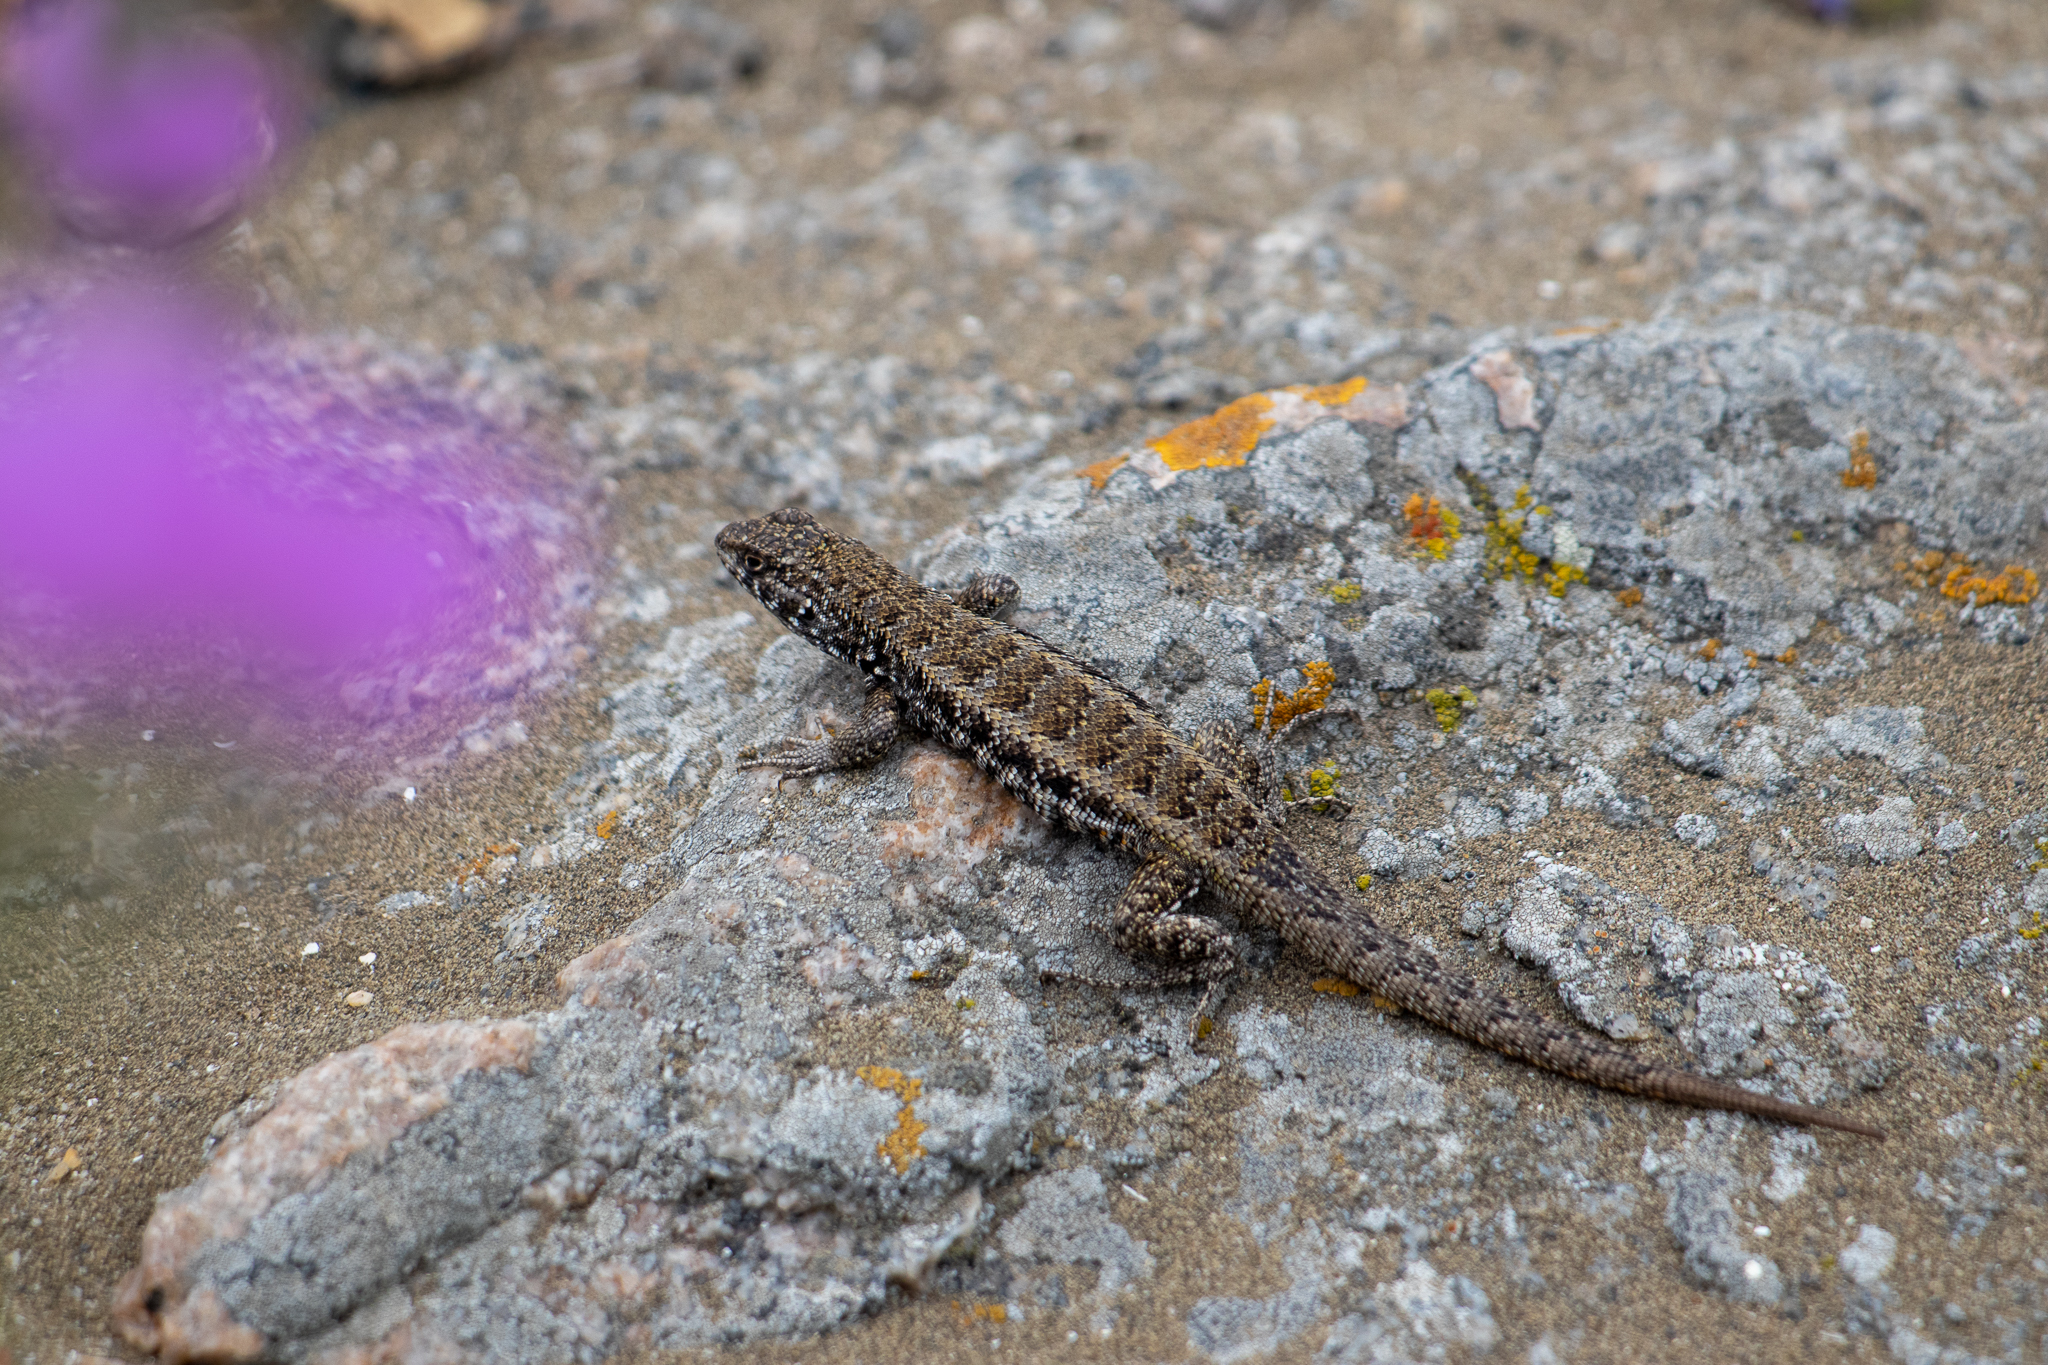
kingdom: Animalia
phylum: Chordata
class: Squamata
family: Liolaemidae
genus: Liolaemus
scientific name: Liolaemus silvai
